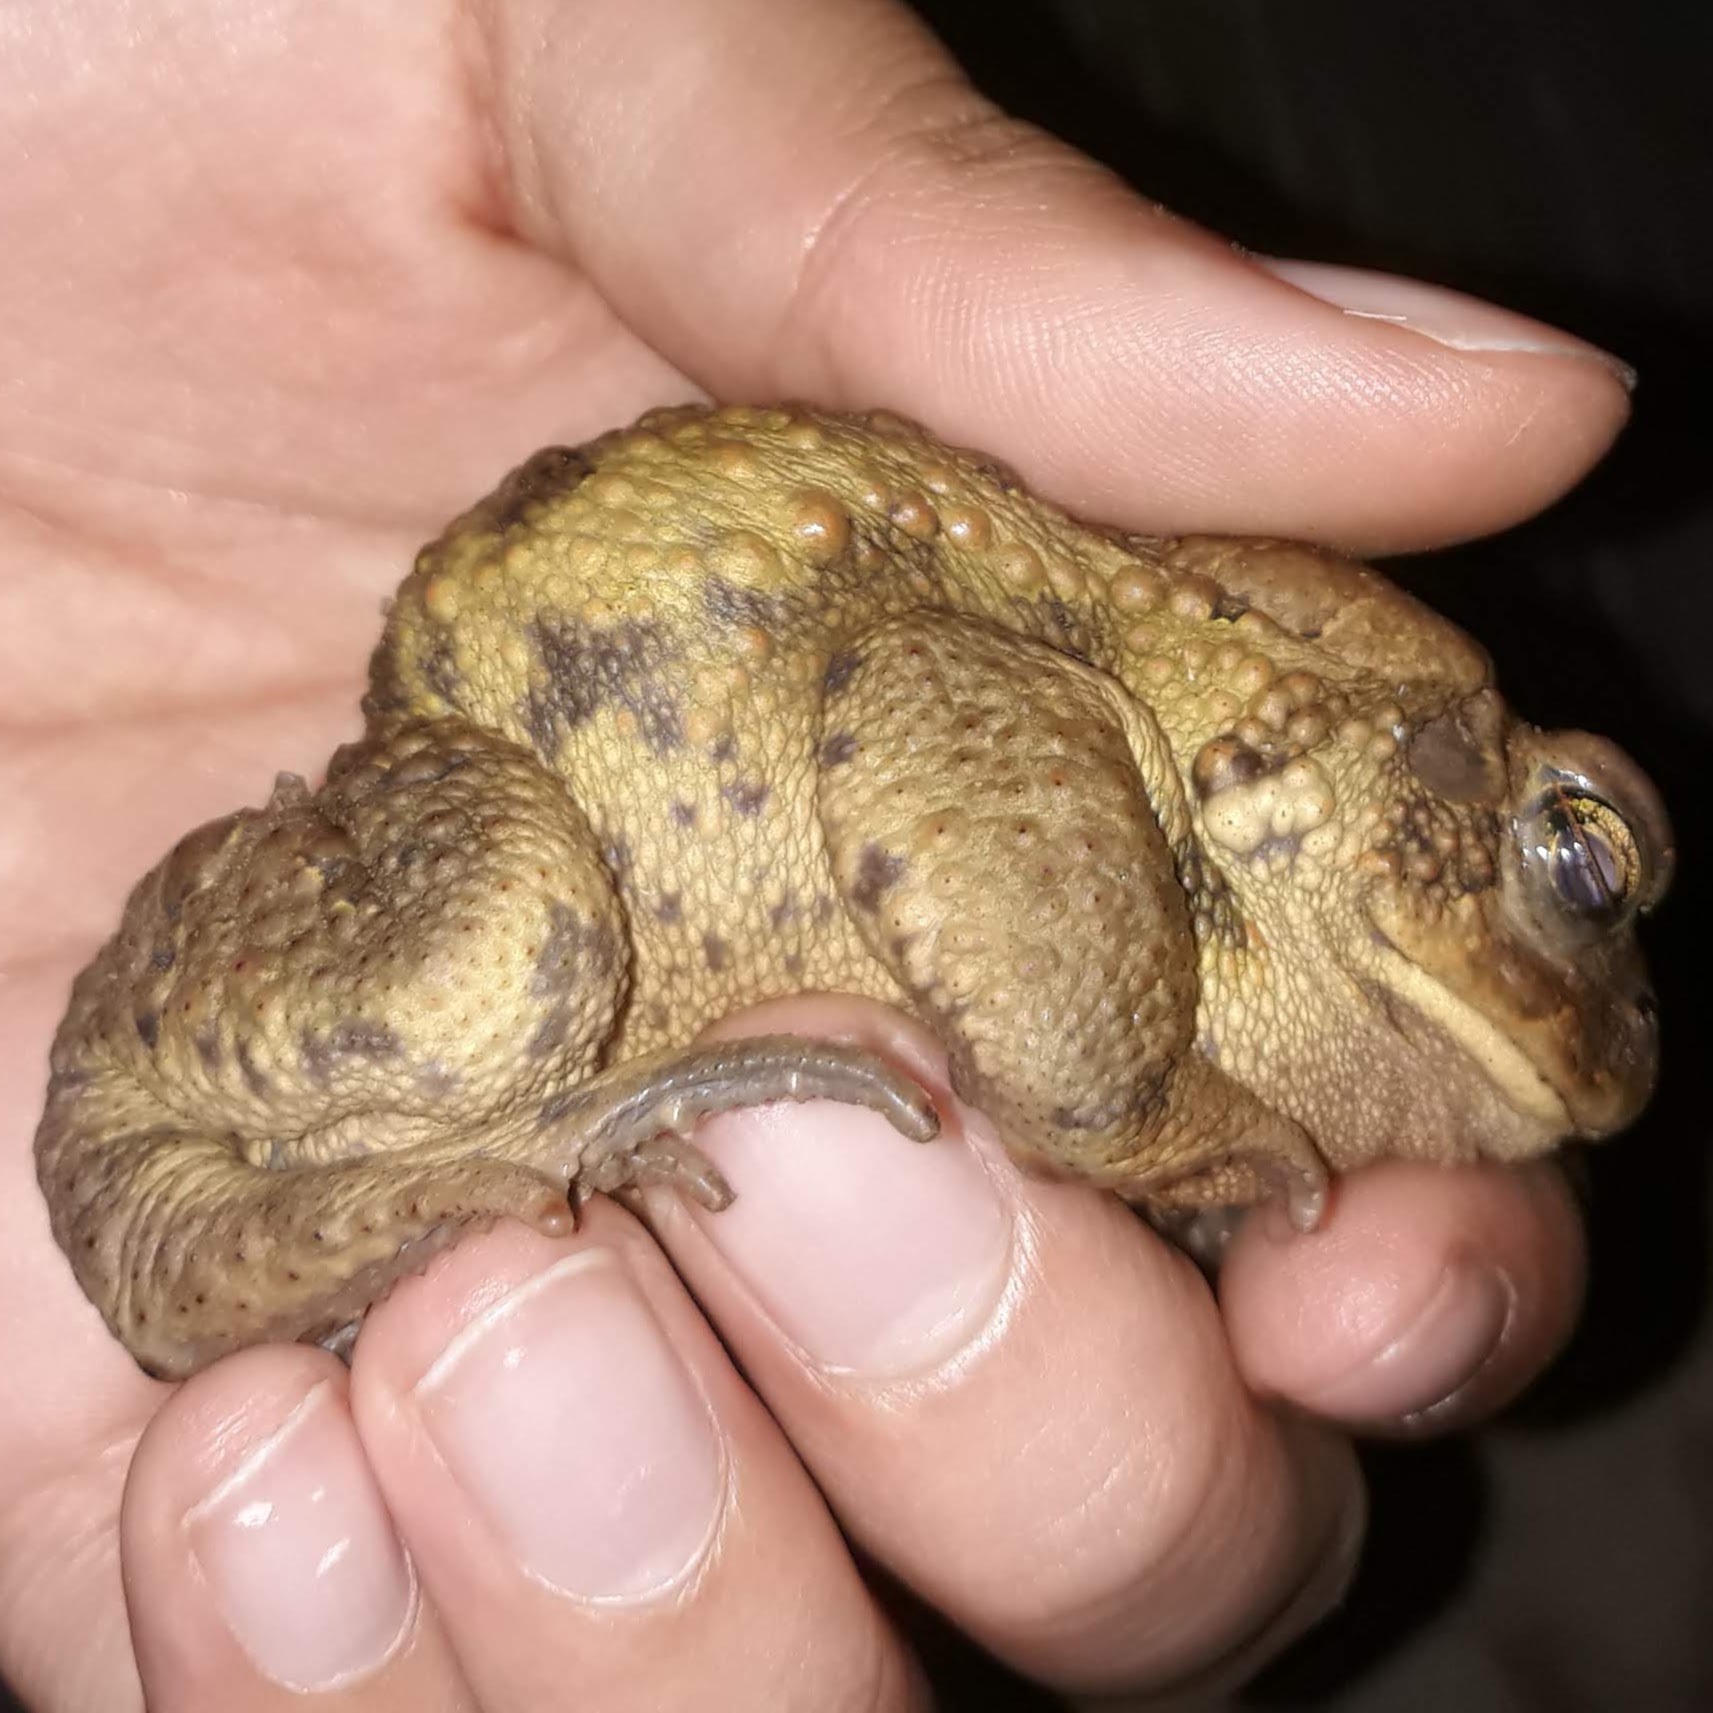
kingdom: Animalia
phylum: Chordata
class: Amphibia
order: Anura
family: Bufonidae
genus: Anaxyrus
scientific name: Anaxyrus americanus
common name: American toad
